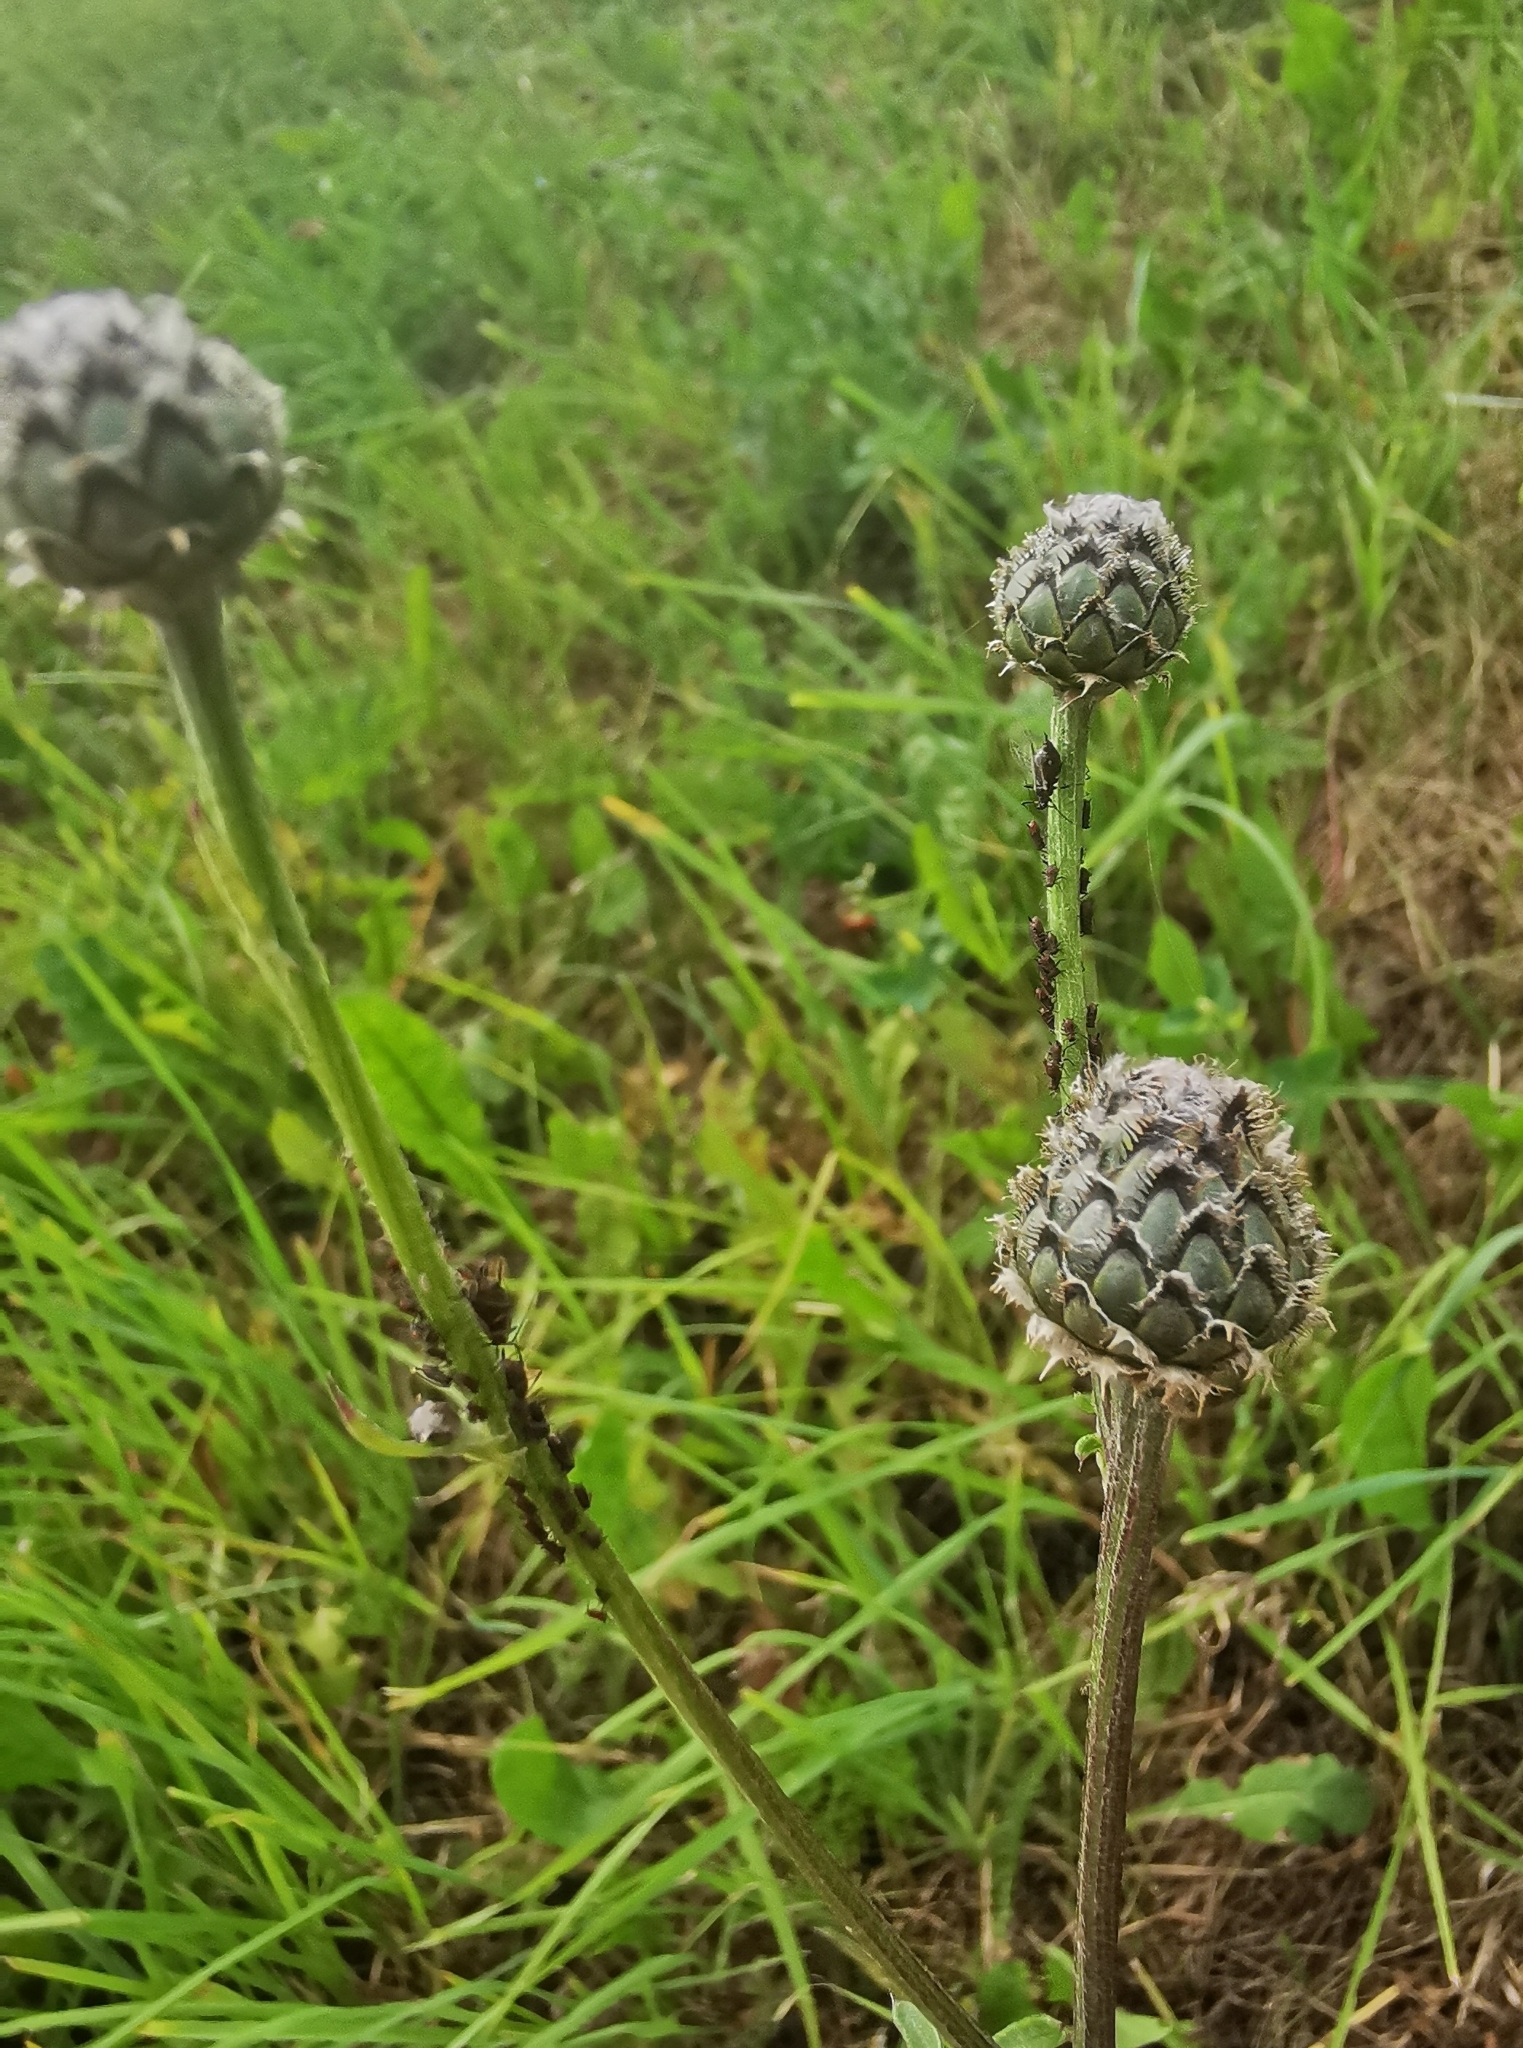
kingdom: Plantae
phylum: Tracheophyta
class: Magnoliopsida
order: Asterales
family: Asteraceae
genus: Centaurea
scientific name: Centaurea scabiosa
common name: Greater knapweed
